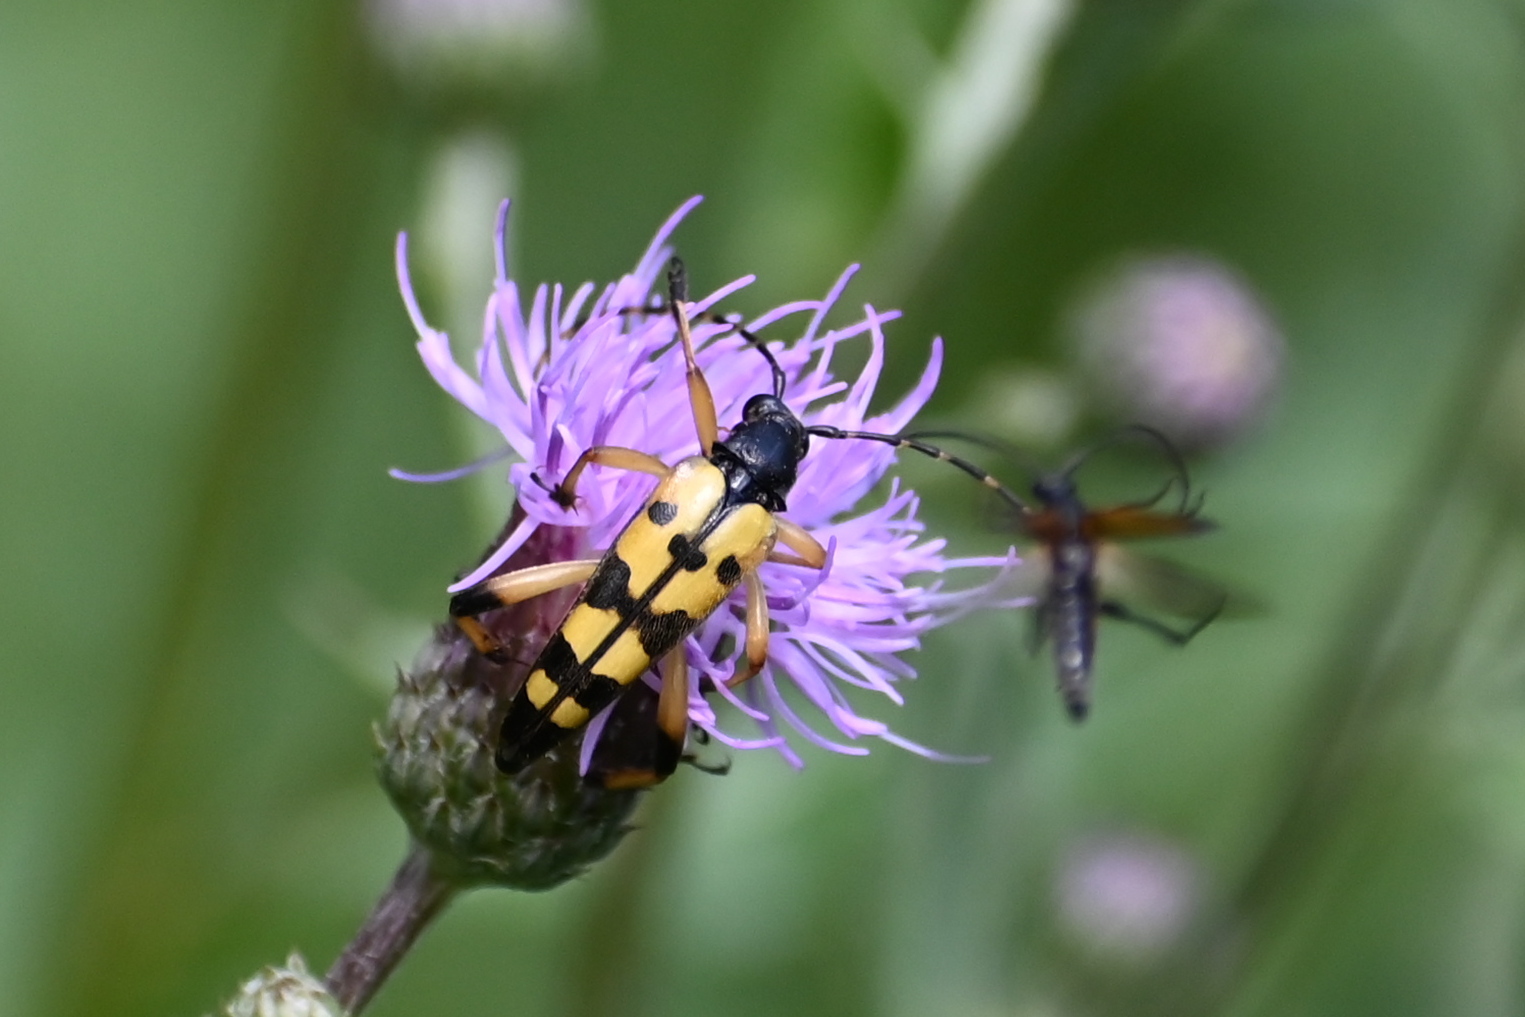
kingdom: Animalia
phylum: Arthropoda
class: Insecta
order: Coleoptera
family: Cerambycidae
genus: Rutpela
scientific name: Rutpela maculata
